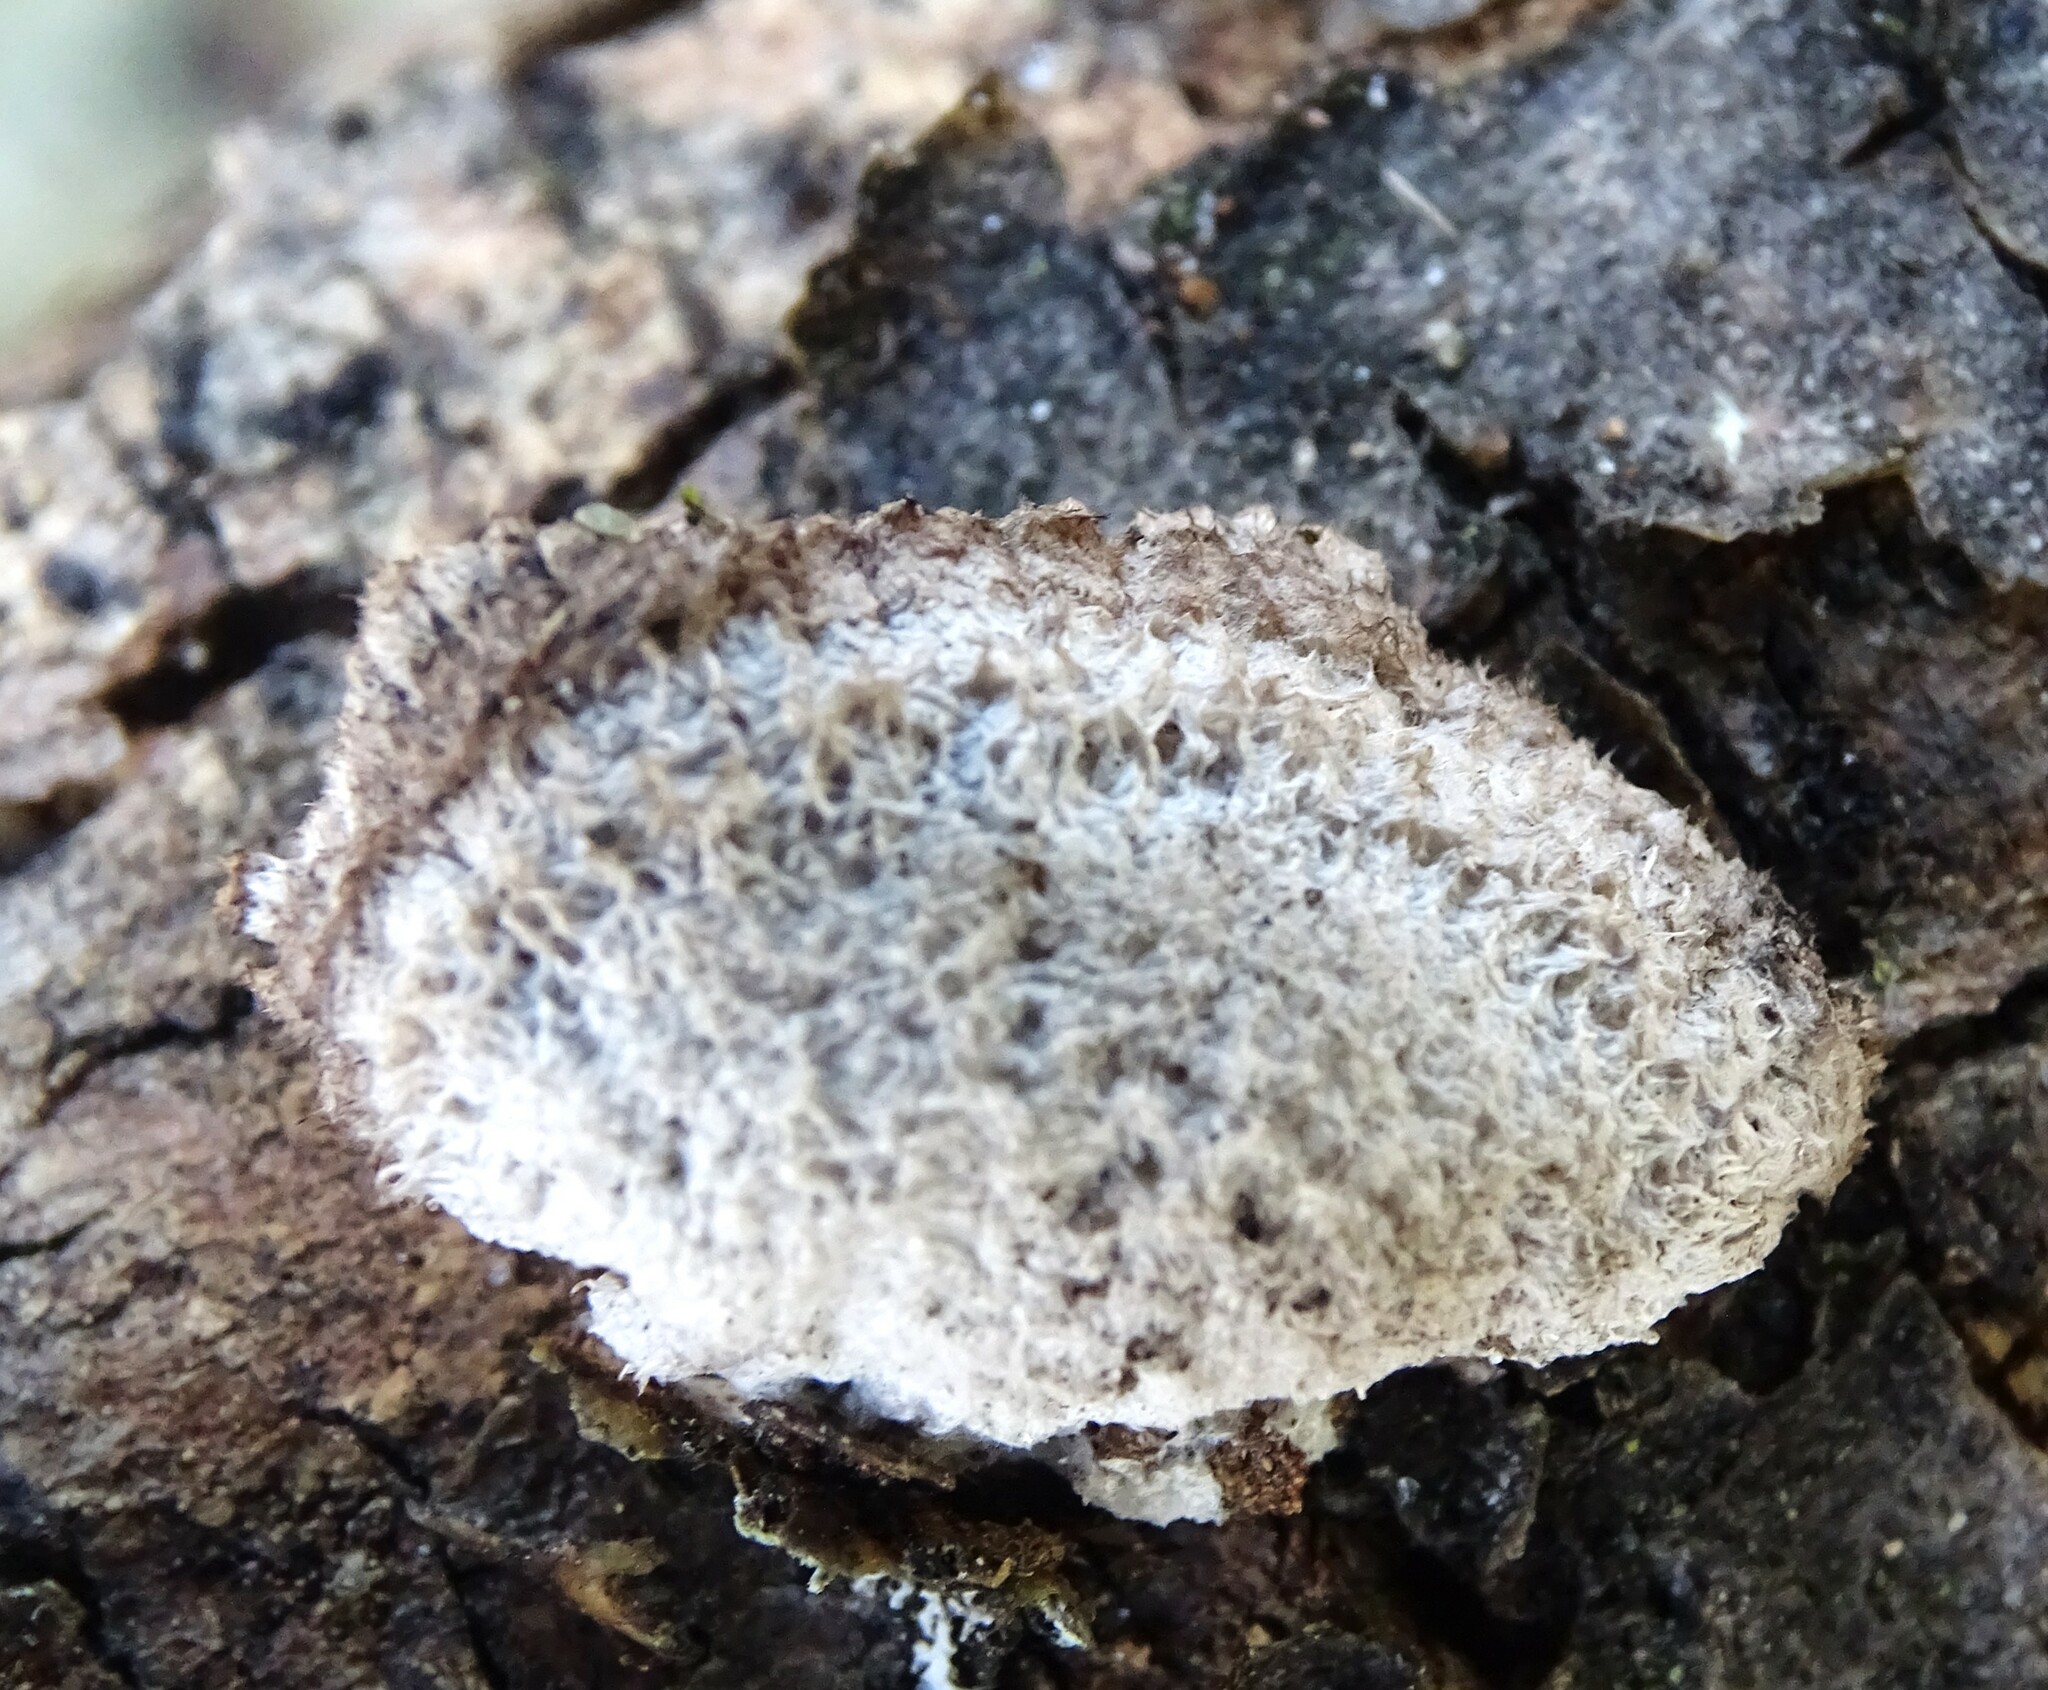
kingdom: Fungi
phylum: Basidiomycota
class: Agaricomycetes
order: Agaricales
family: Schizophyllaceae
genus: Schizophyllum
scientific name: Schizophyllum commune
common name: Common porecrust
